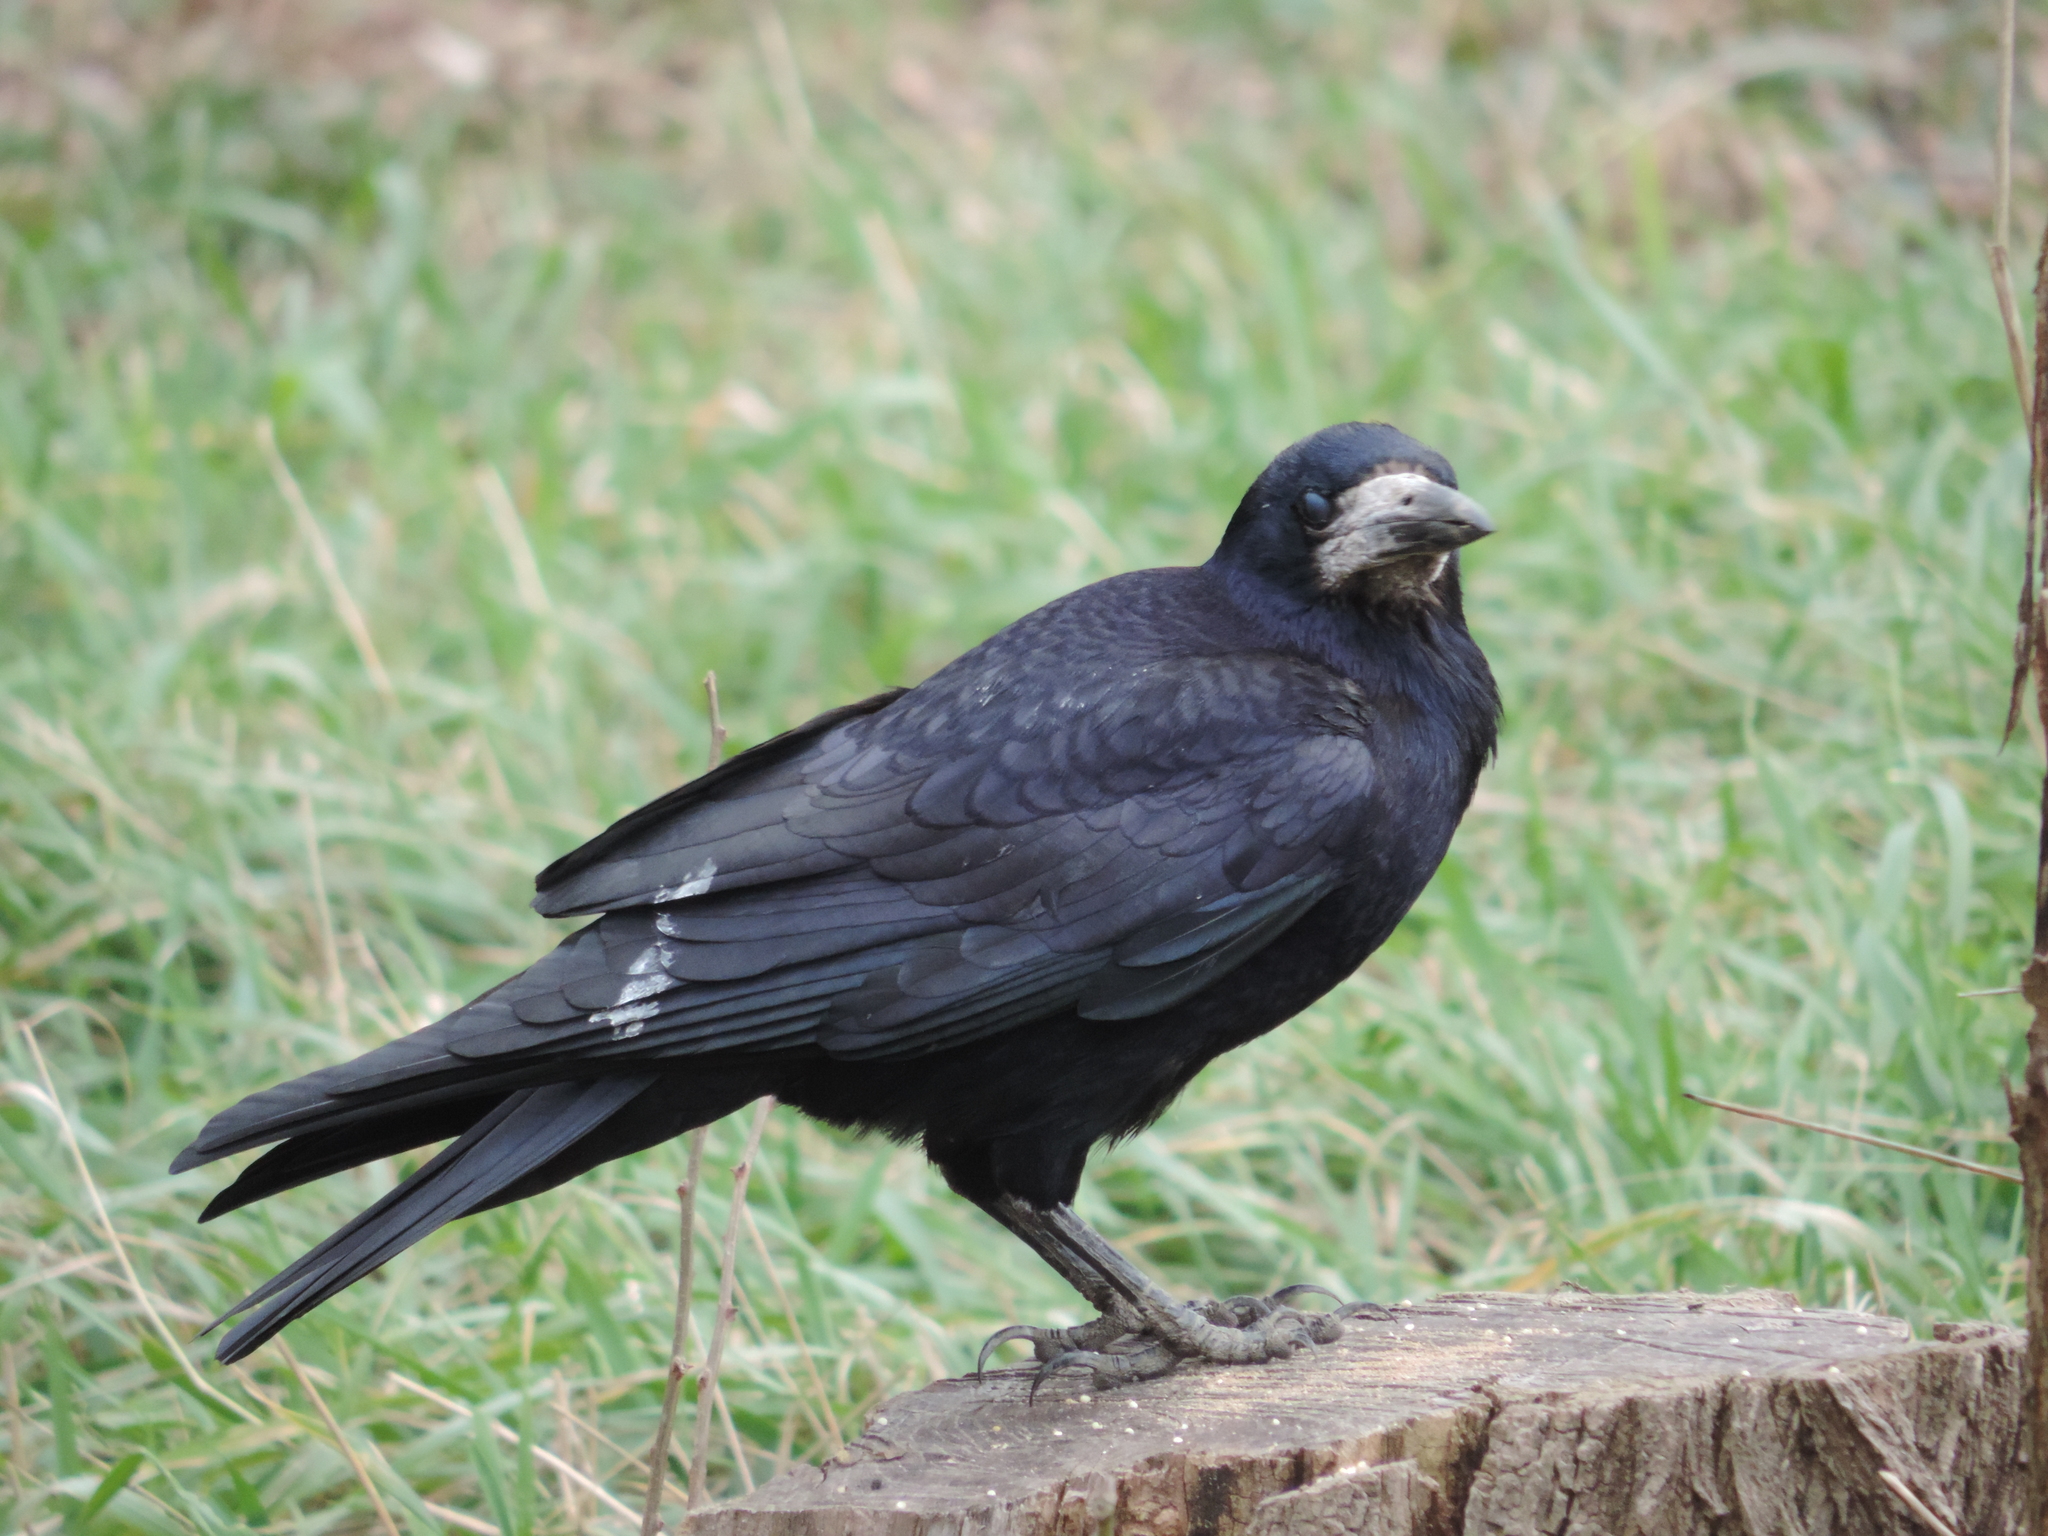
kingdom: Animalia
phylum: Chordata
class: Aves
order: Passeriformes
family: Corvidae
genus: Corvus
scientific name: Corvus frugilegus
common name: Rook
